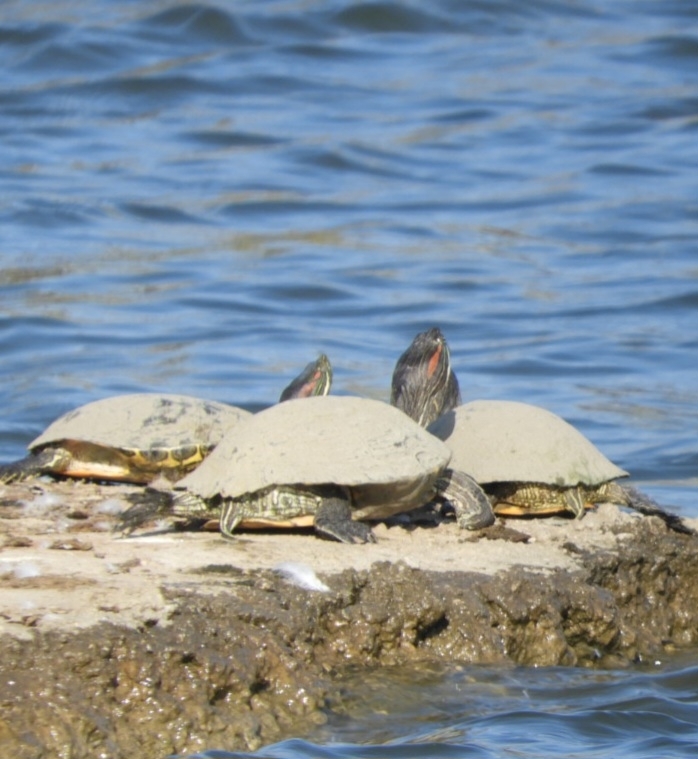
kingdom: Animalia
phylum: Chordata
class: Testudines
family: Emydidae
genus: Trachemys
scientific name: Trachemys scripta
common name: Slider
